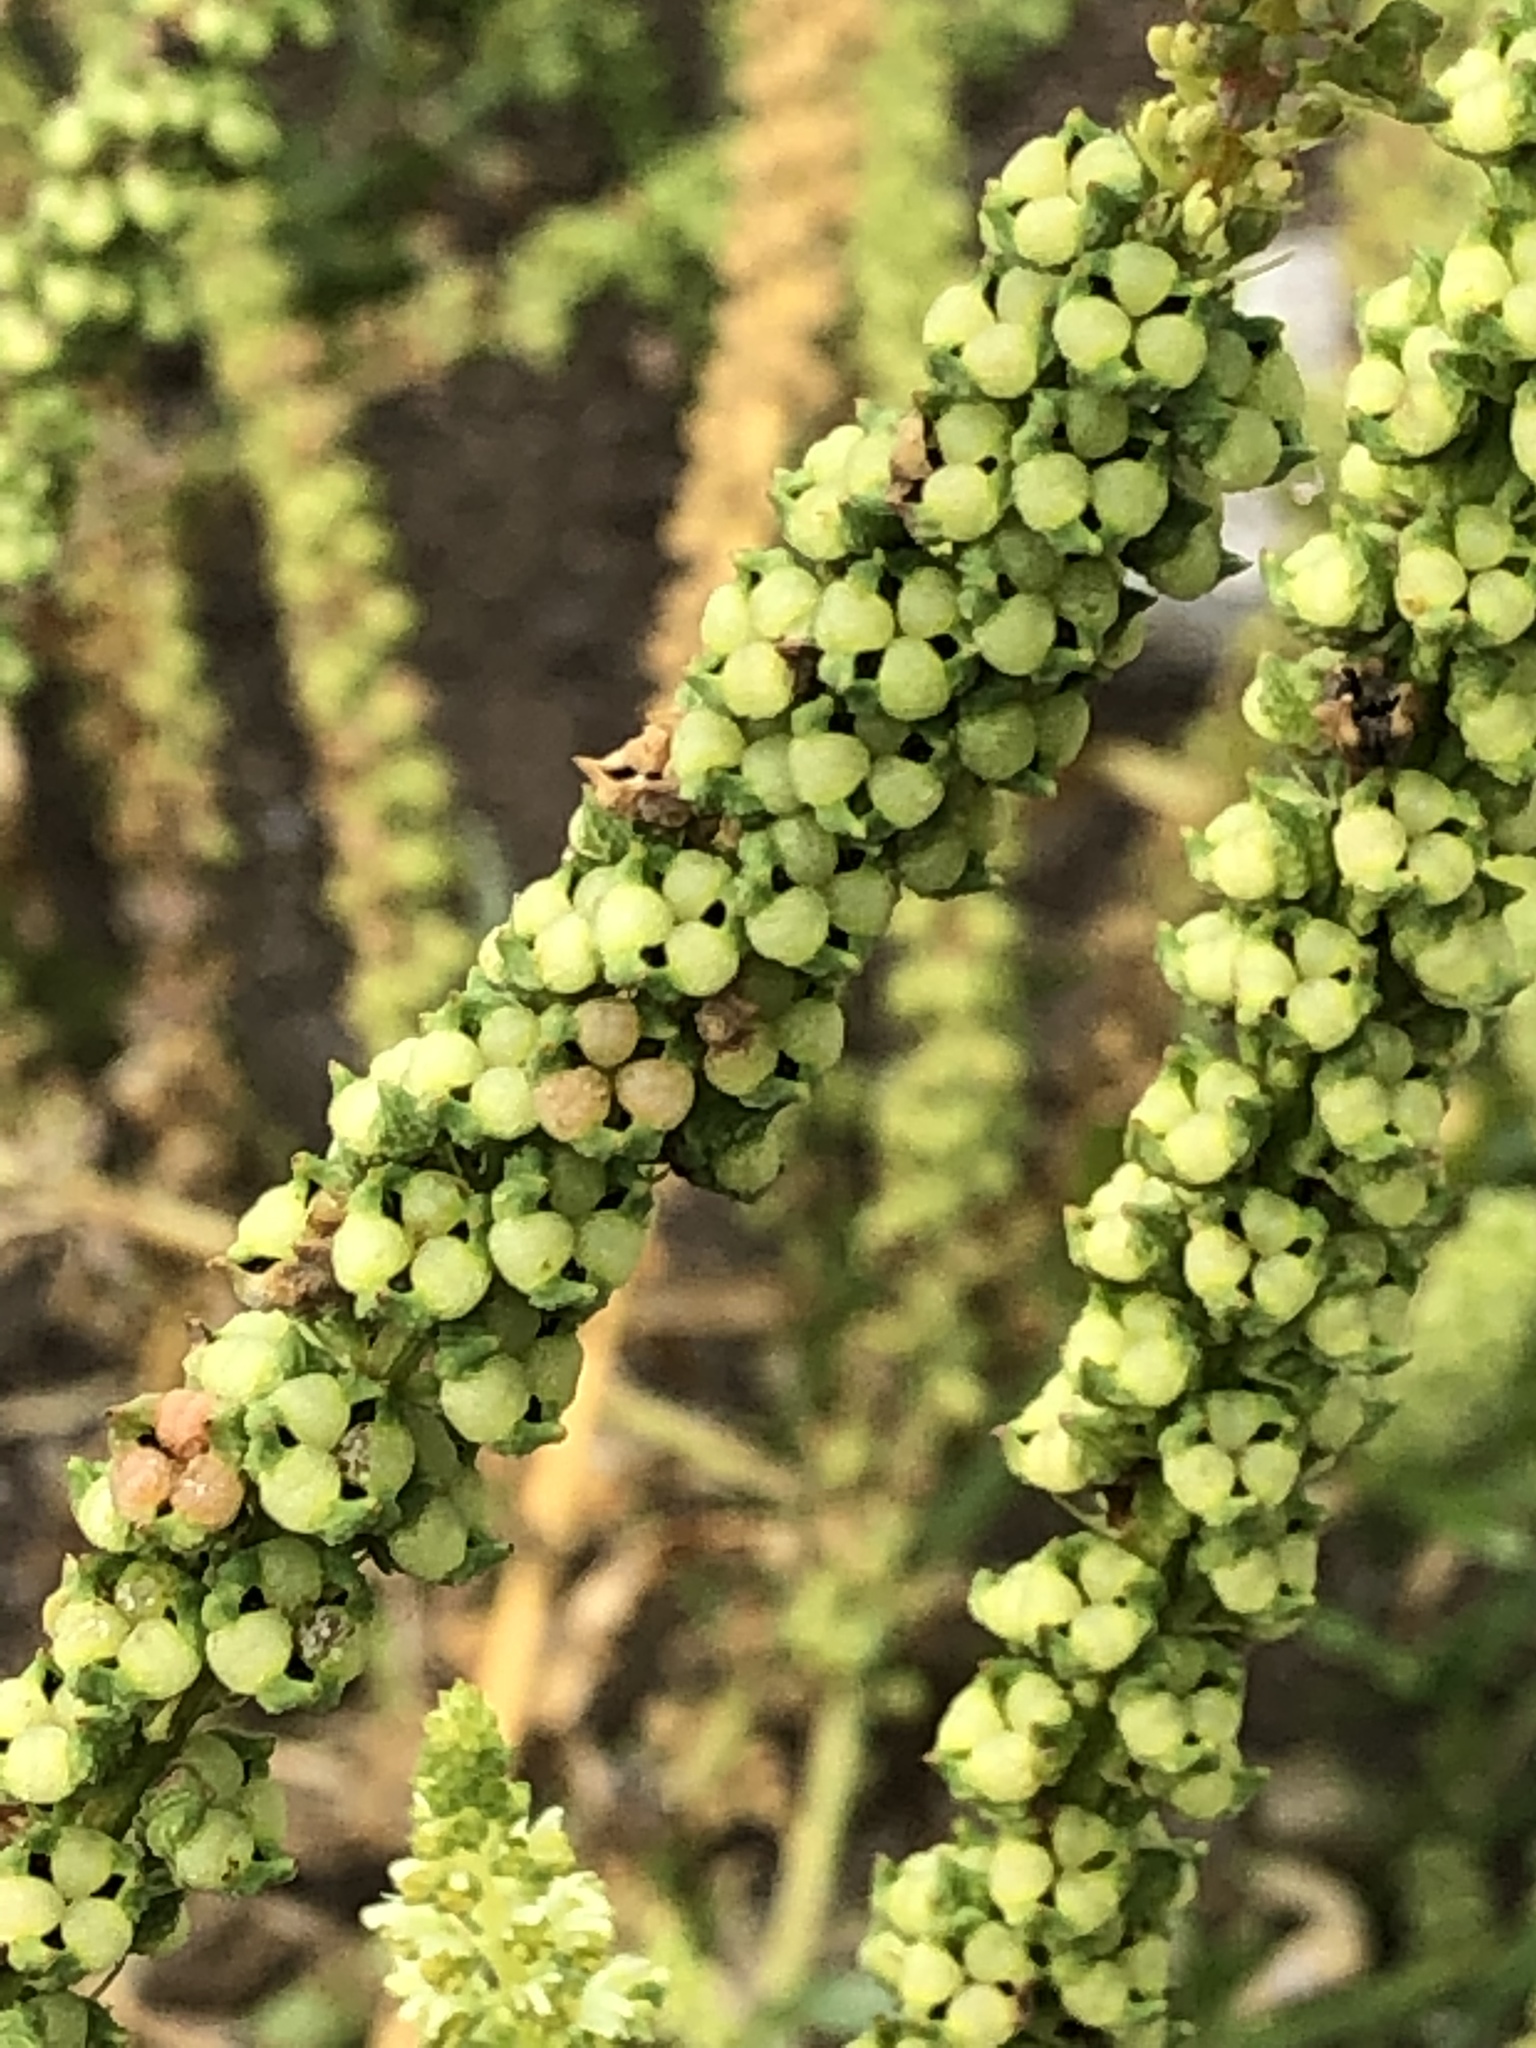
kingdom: Plantae
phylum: Tracheophyta
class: Magnoliopsida
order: Brassicales
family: Resedaceae
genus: Reseda
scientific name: Reseda luteola
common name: Weld
